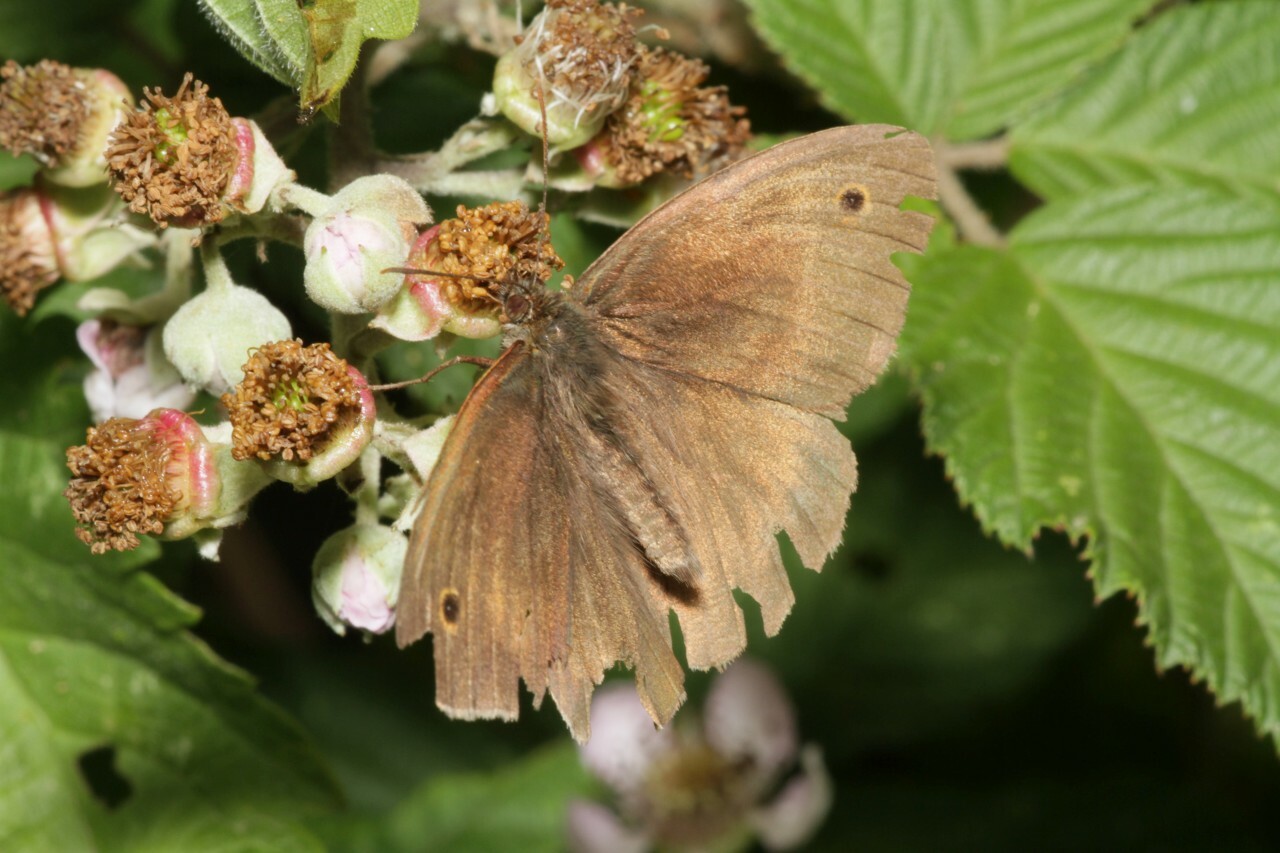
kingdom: Animalia
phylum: Arthropoda
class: Insecta
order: Lepidoptera
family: Nymphalidae
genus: Maniola
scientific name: Maniola jurtina
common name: Meadow brown
